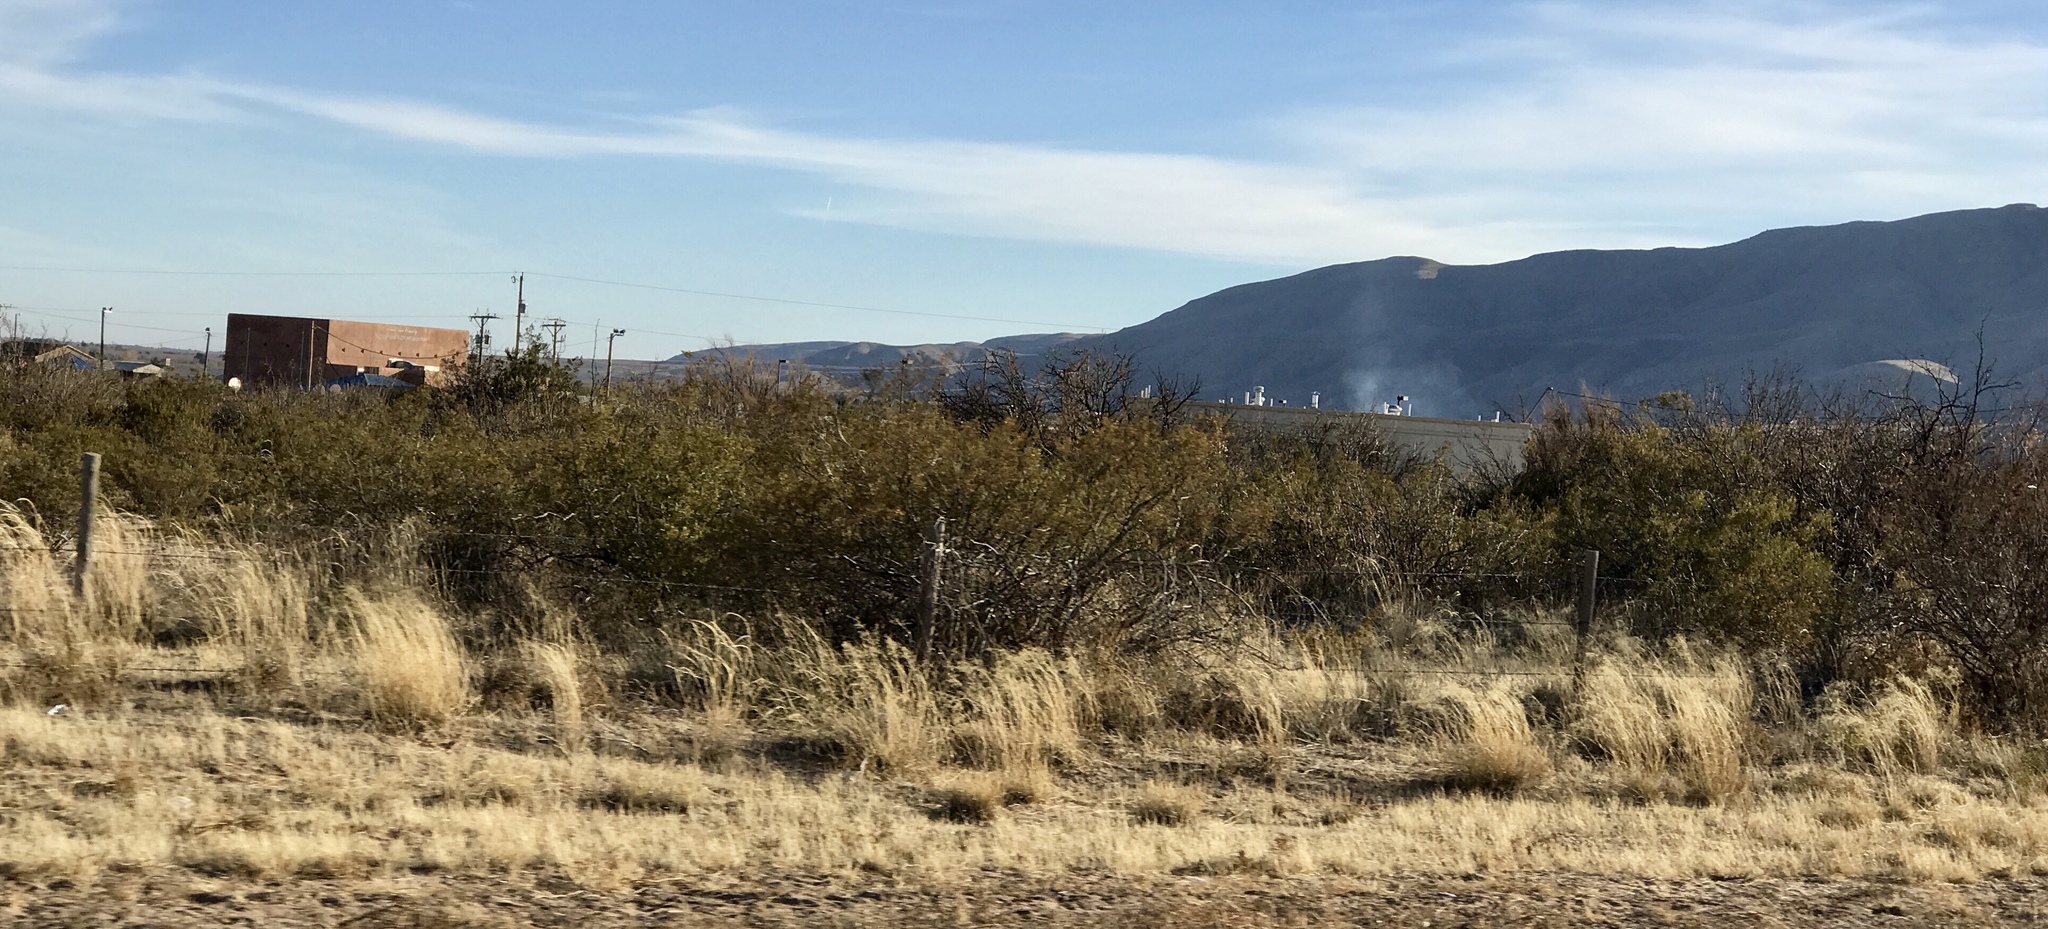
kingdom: Plantae
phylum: Tracheophyta
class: Magnoliopsida
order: Zygophyllales
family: Zygophyllaceae
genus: Larrea
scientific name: Larrea tridentata
